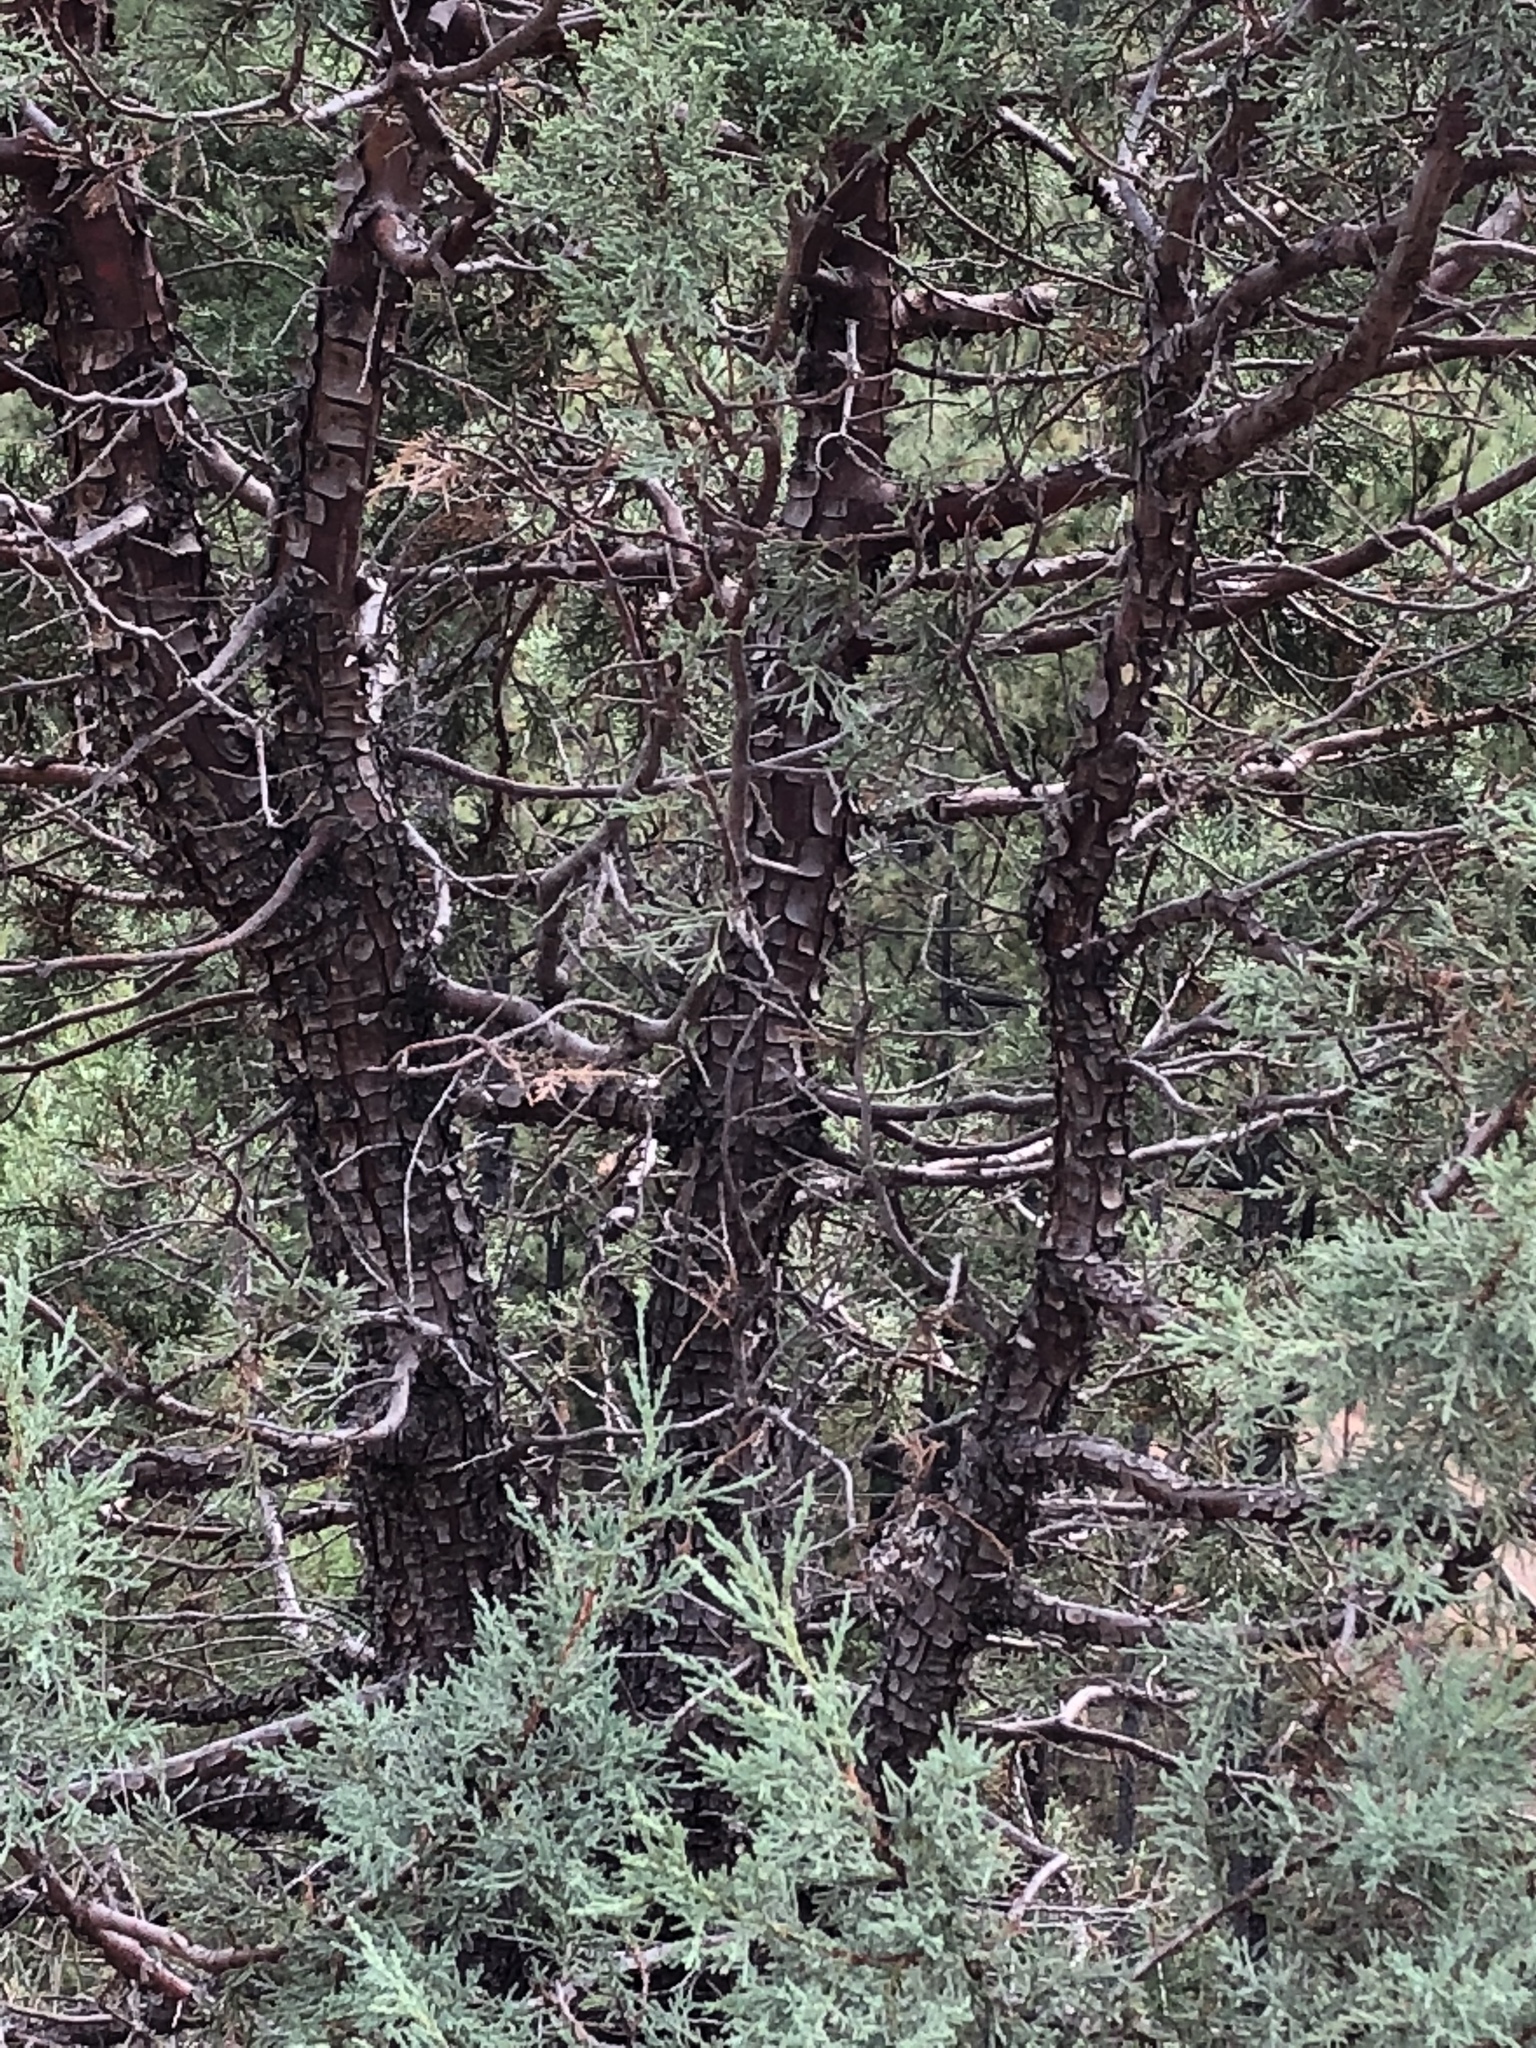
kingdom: Plantae
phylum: Tracheophyta
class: Pinopsida
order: Pinales
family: Cupressaceae
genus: Juniperus
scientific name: Juniperus deppeana
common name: Alligator juniper
